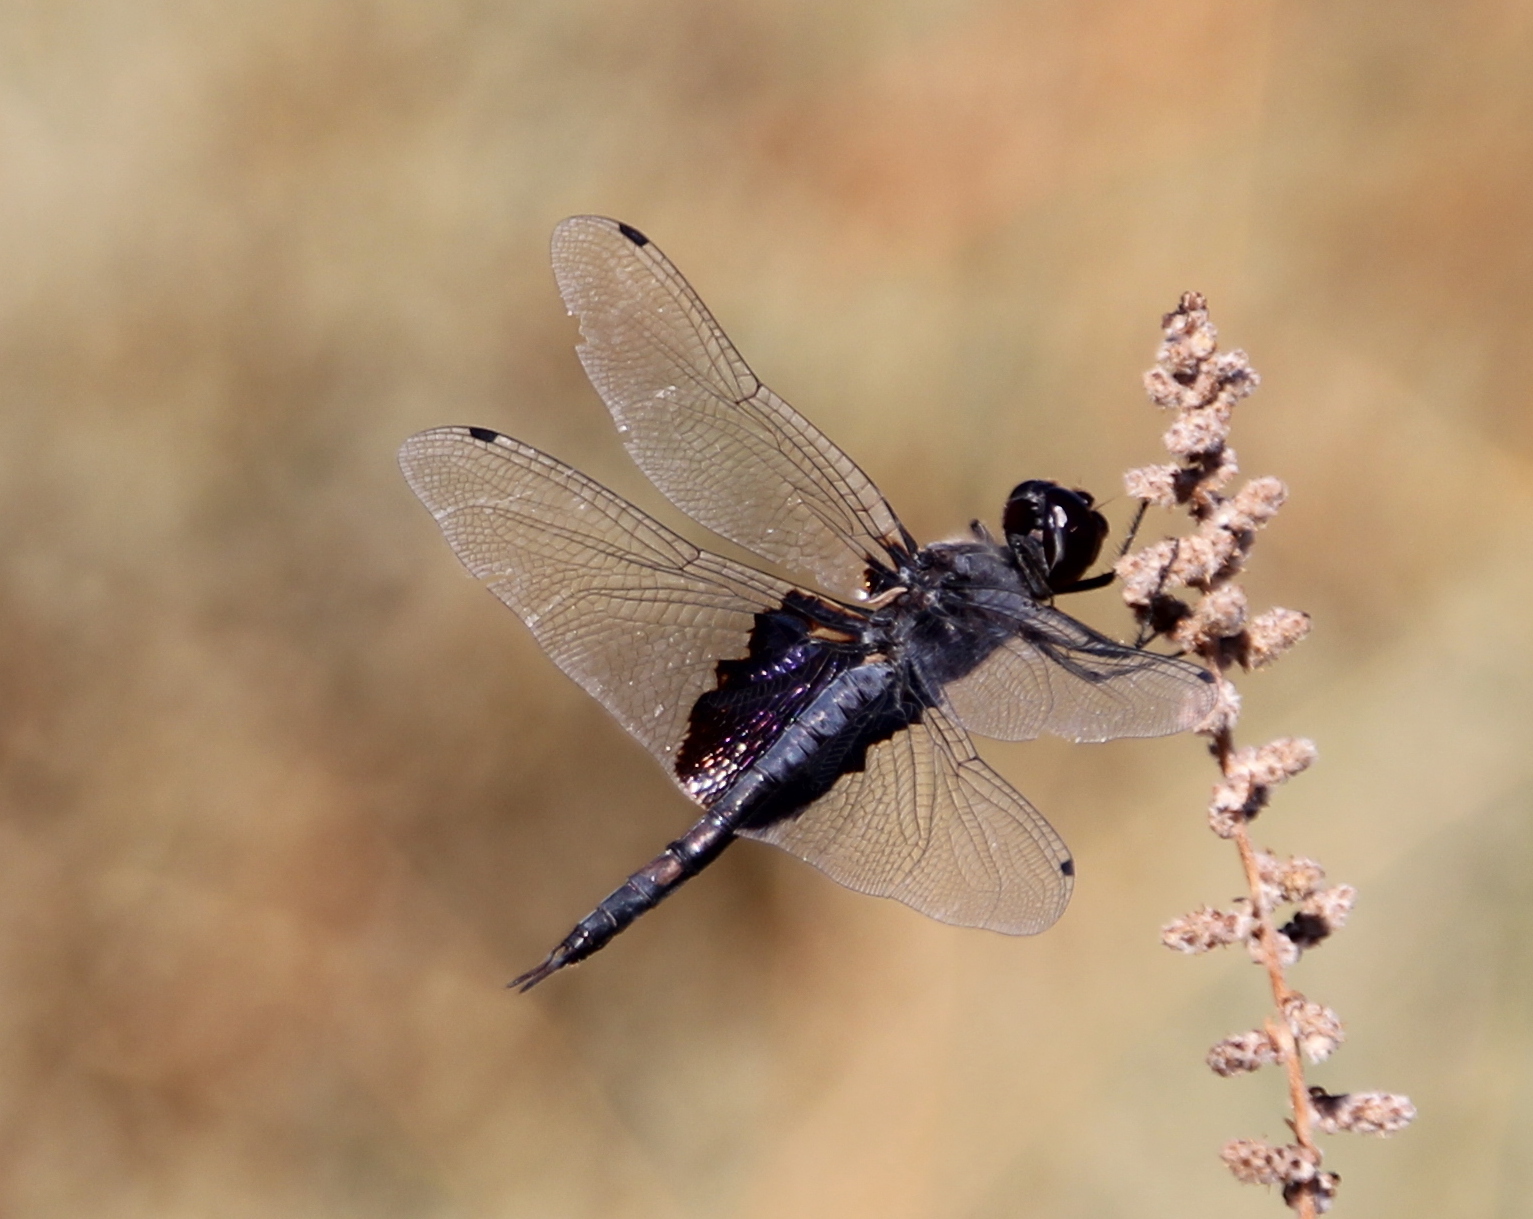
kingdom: Animalia
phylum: Arthropoda
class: Insecta
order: Odonata
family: Libellulidae
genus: Tramea
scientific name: Tramea lacerata
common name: Black saddlebags
